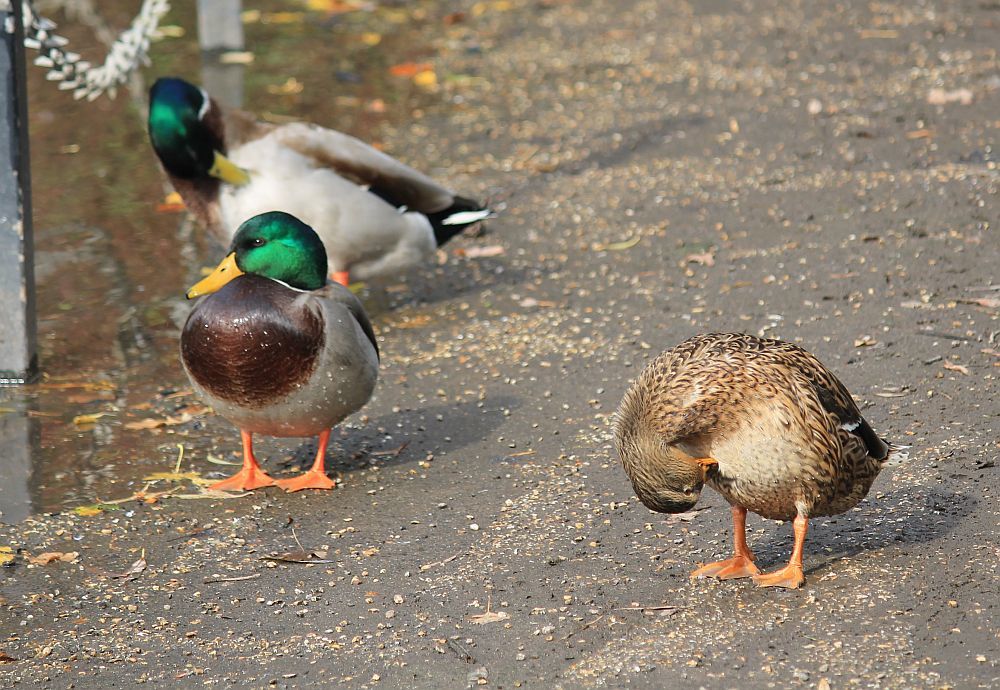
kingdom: Animalia
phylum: Chordata
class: Aves
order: Anseriformes
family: Anatidae
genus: Anas
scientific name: Anas platyrhynchos
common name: Mallard
